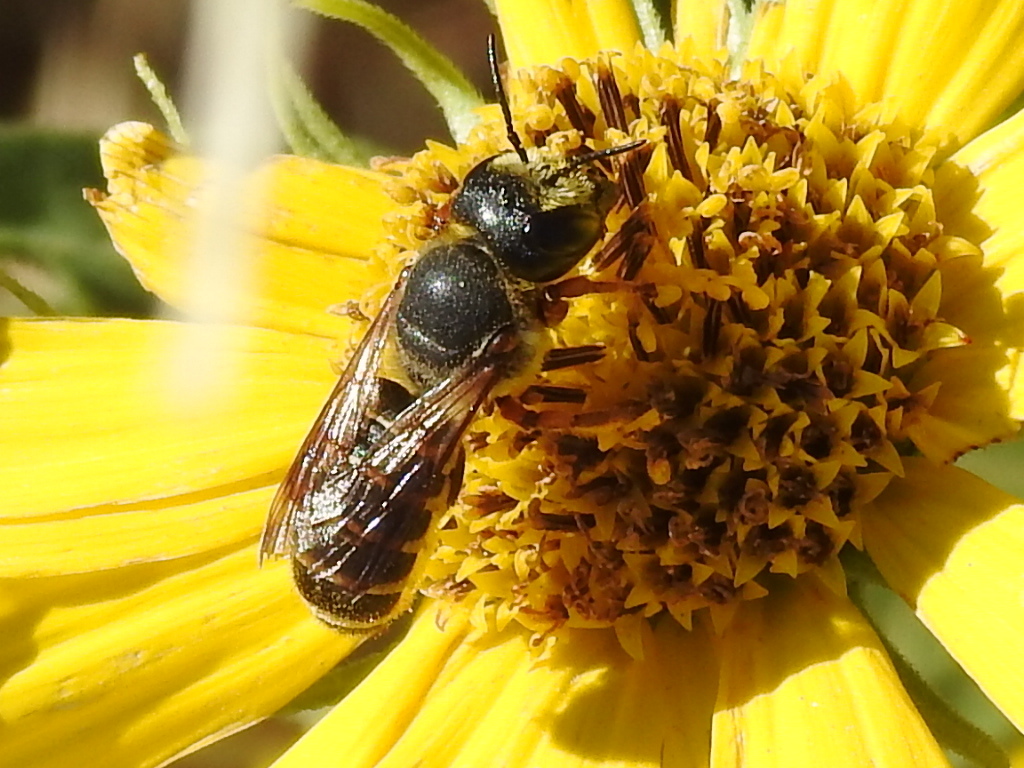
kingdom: Animalia
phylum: Arthropoda
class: Insecta
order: Hymenoptera
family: Megachilidae
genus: Megachile
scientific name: Megachile inimica
